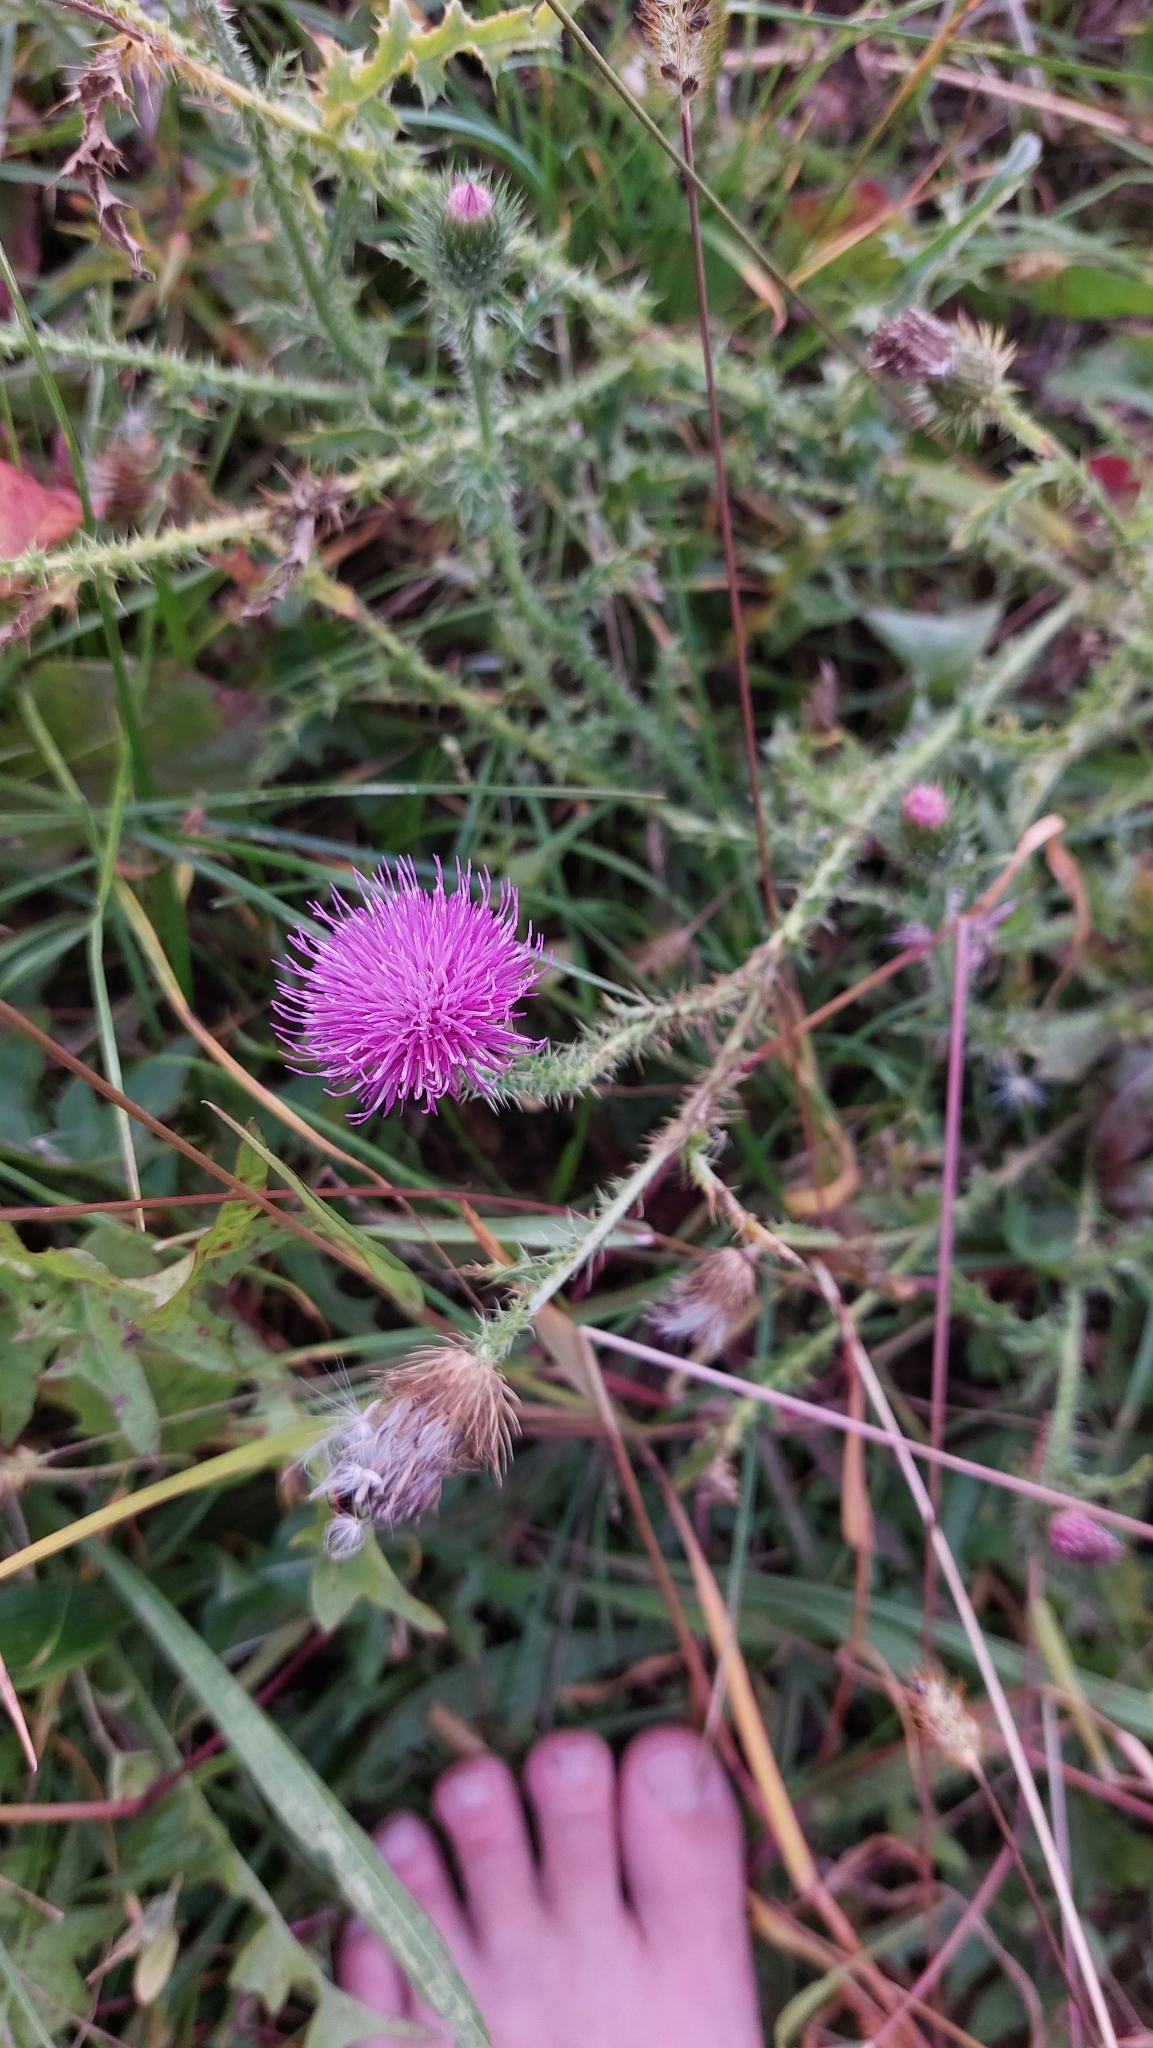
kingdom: Plantae
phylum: Tracheophyta
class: Magnoliopsida
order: Asterales
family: Asteraceae
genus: Carduus
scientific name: Carduus acanthoides
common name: Plumeless thistle
